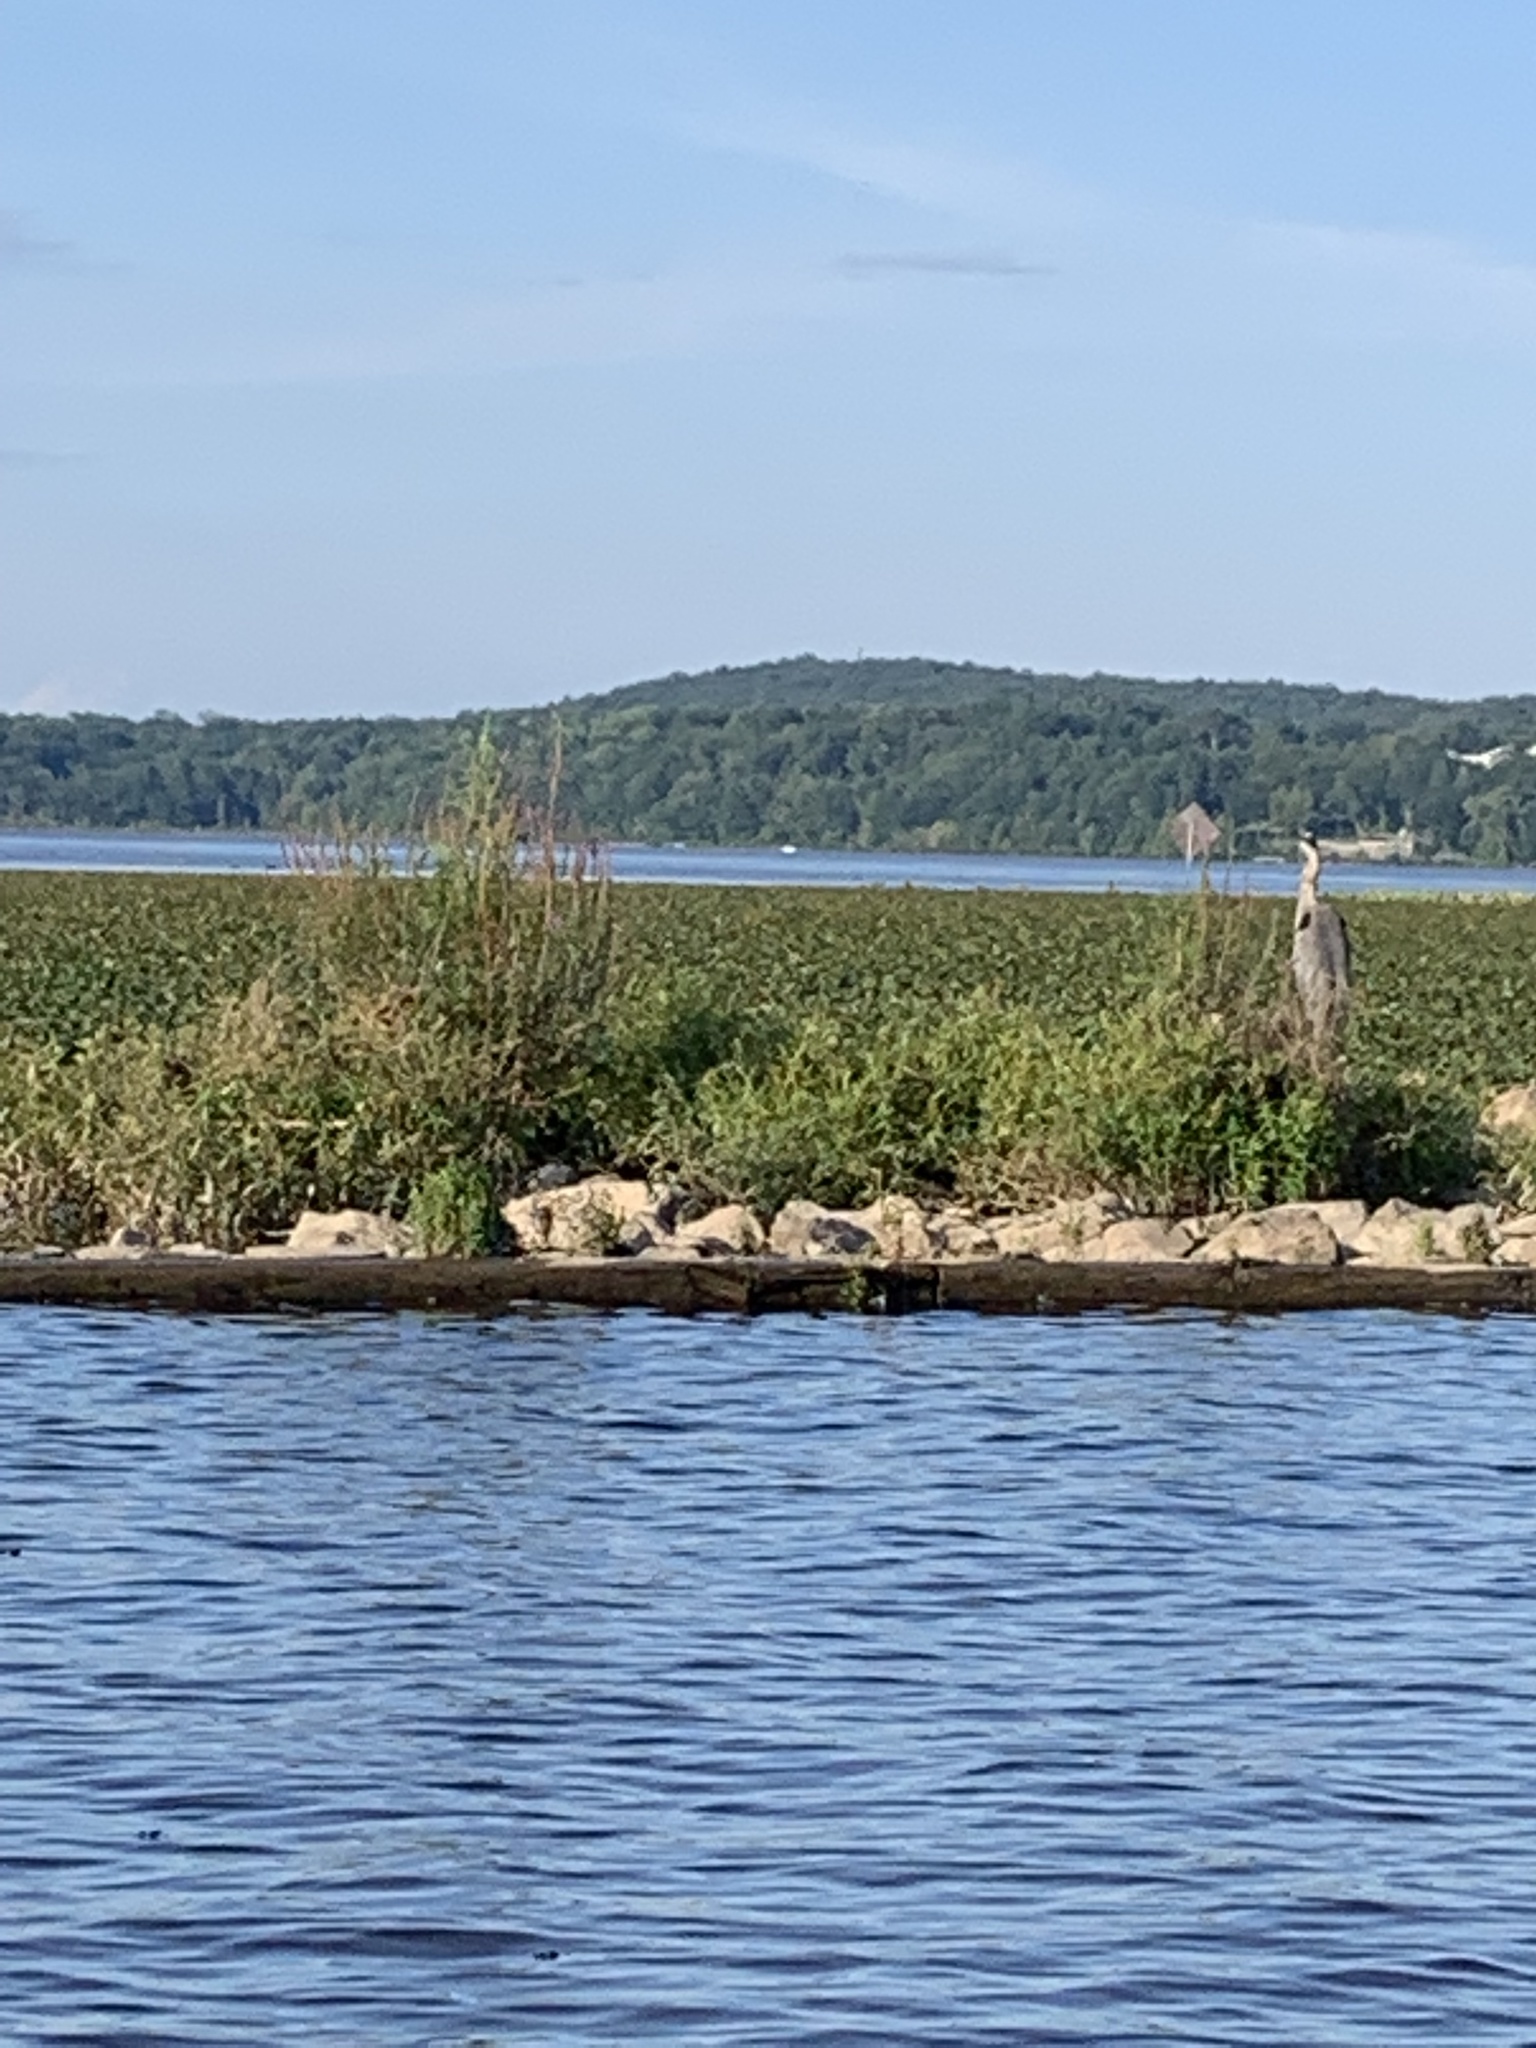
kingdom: Animalia
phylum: Chordata
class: Aves
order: Pelecaniformes
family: Ardeidae
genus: Ardea
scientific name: Ardea herodias
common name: Great blue heron
